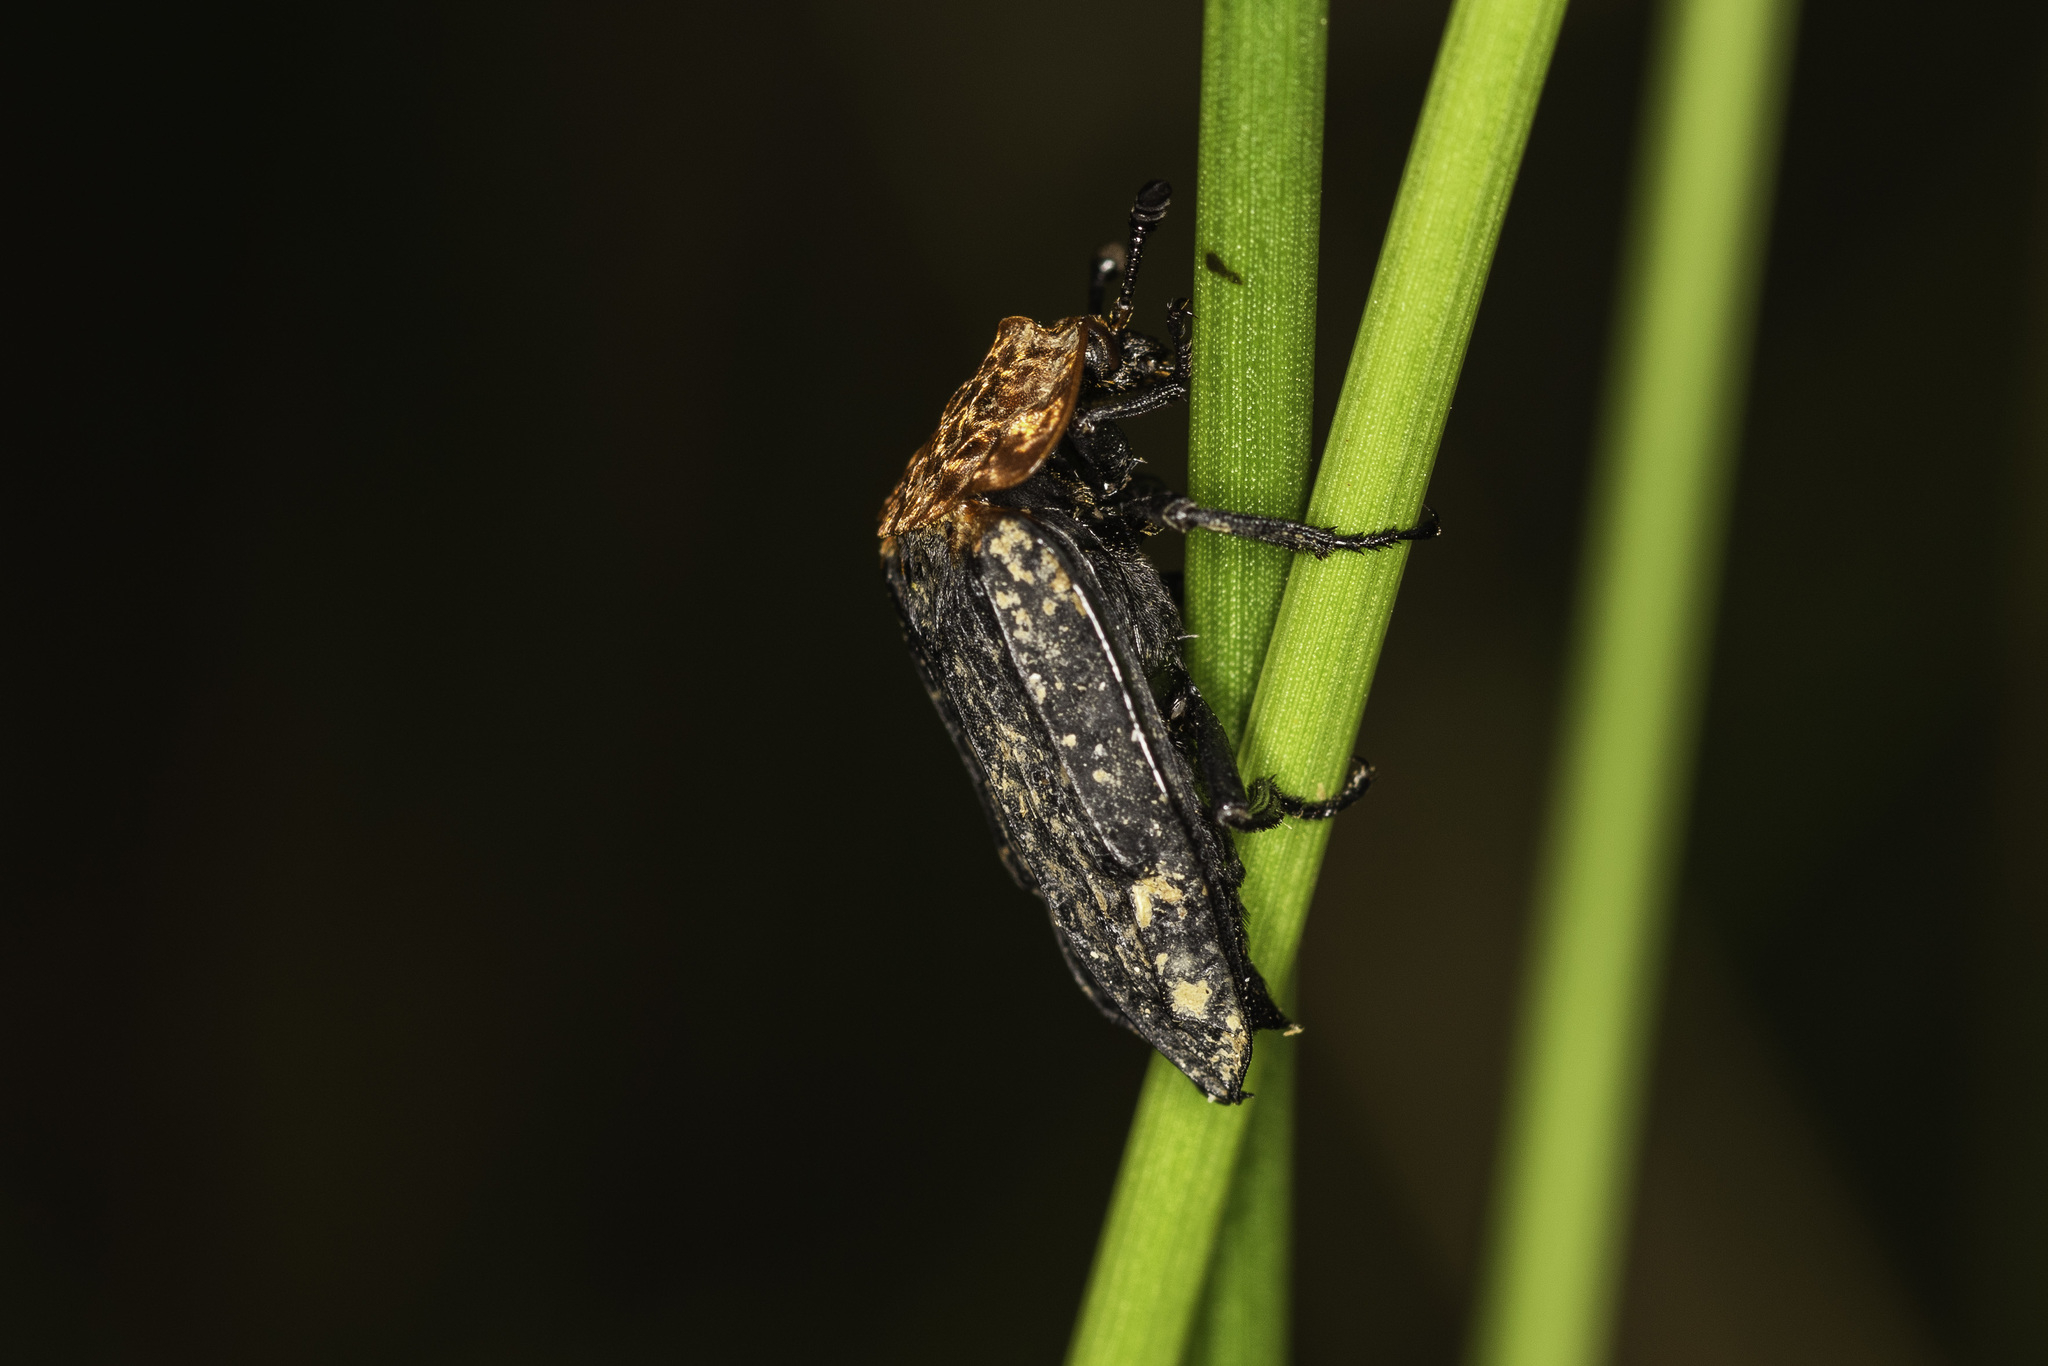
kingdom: Animalia
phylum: Arthropoda
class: Insecta
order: Coleoptera
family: Staphylinidae
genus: Oiceoptoma
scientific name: Oiceoptoma thoracicum
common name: Red-breasted carrion beetle
